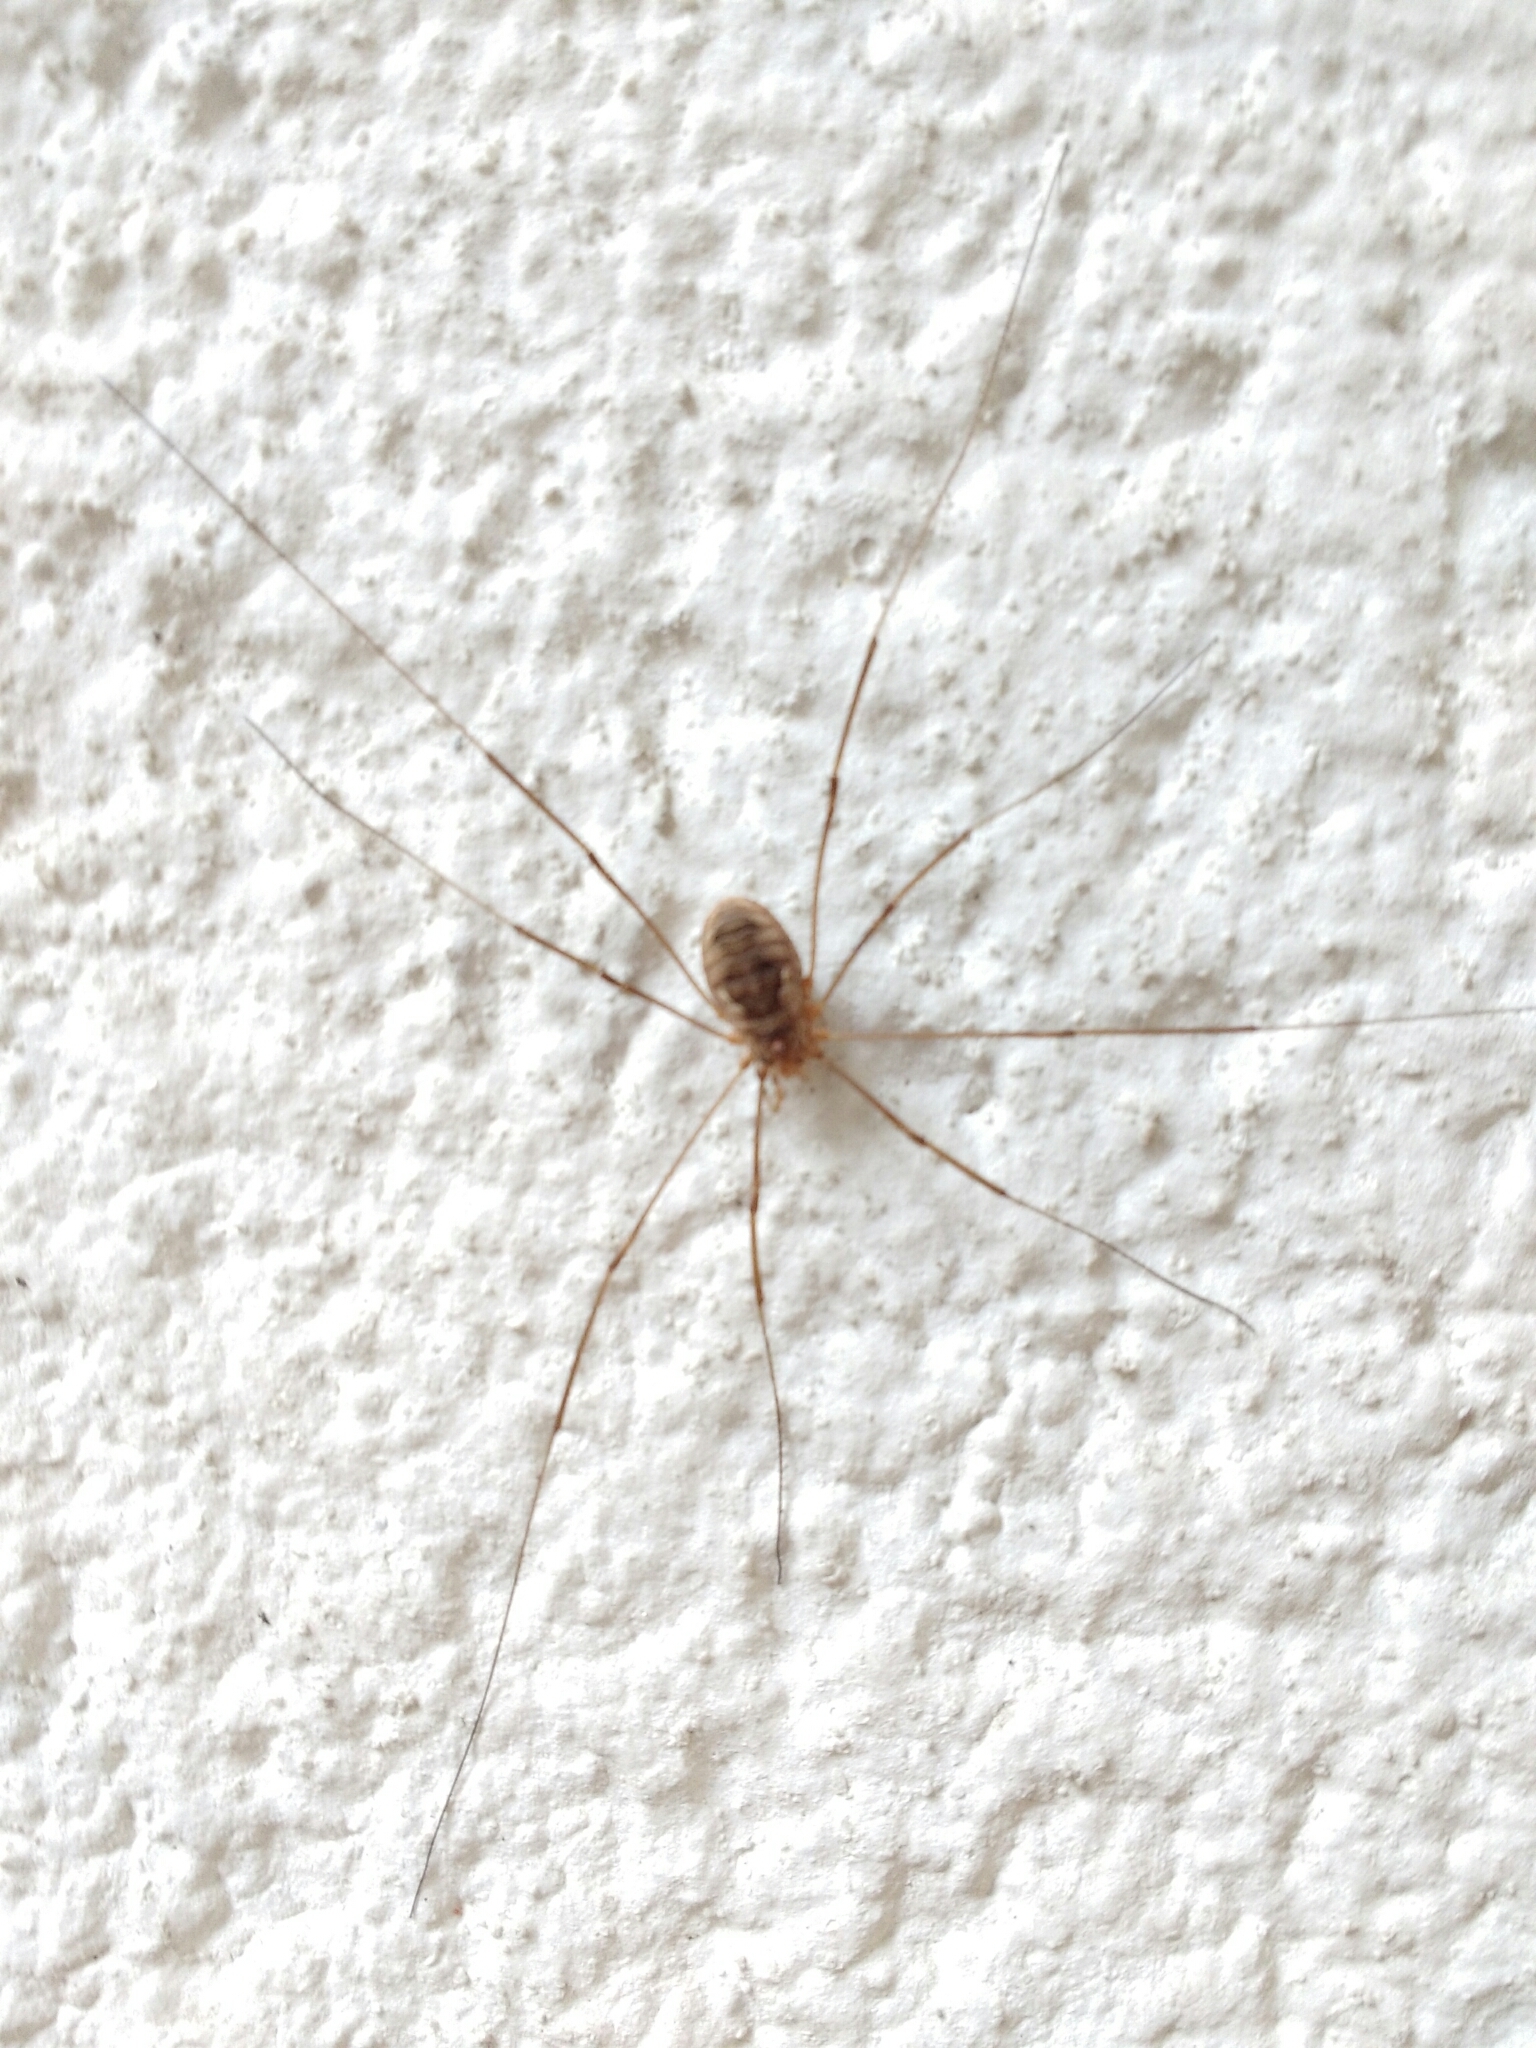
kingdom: Animalia
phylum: Arthropoda
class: Arachnida
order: Opiliones
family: Phalangiidae
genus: Phalangium
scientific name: Phalangium opilio
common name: Daddy longleg
